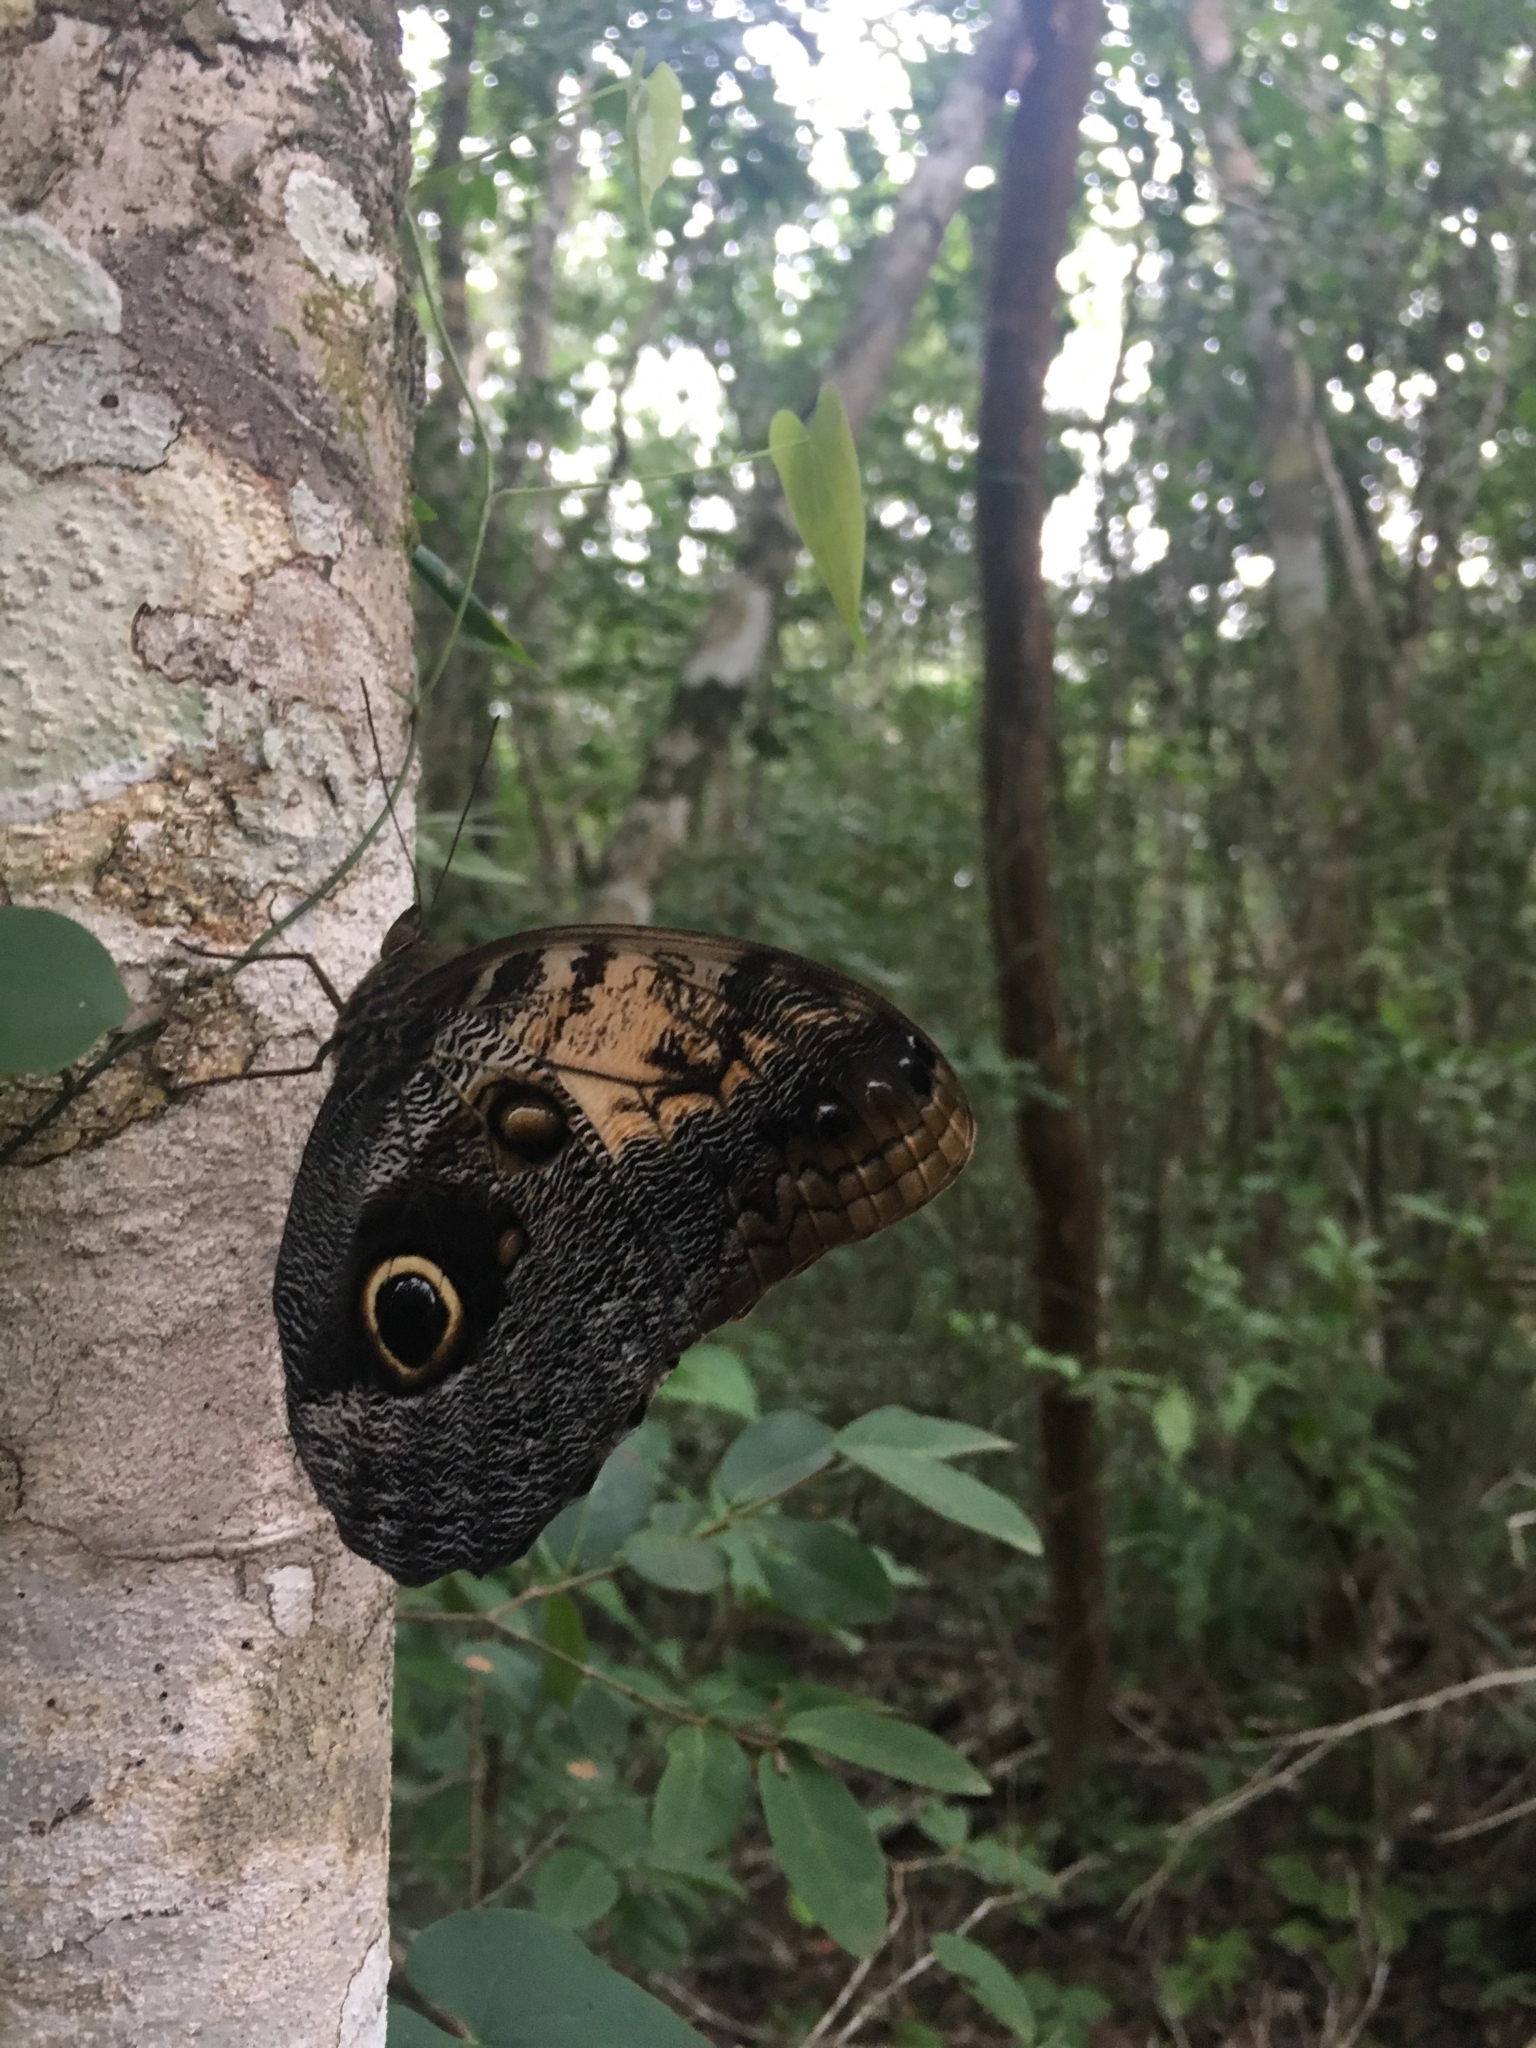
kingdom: Animalia
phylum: Arthropoda
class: Insecta
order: Lepidoptera
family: Nymphalidae
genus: Caligo
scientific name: Caligo telamonius
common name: Pale owl-butterfly
